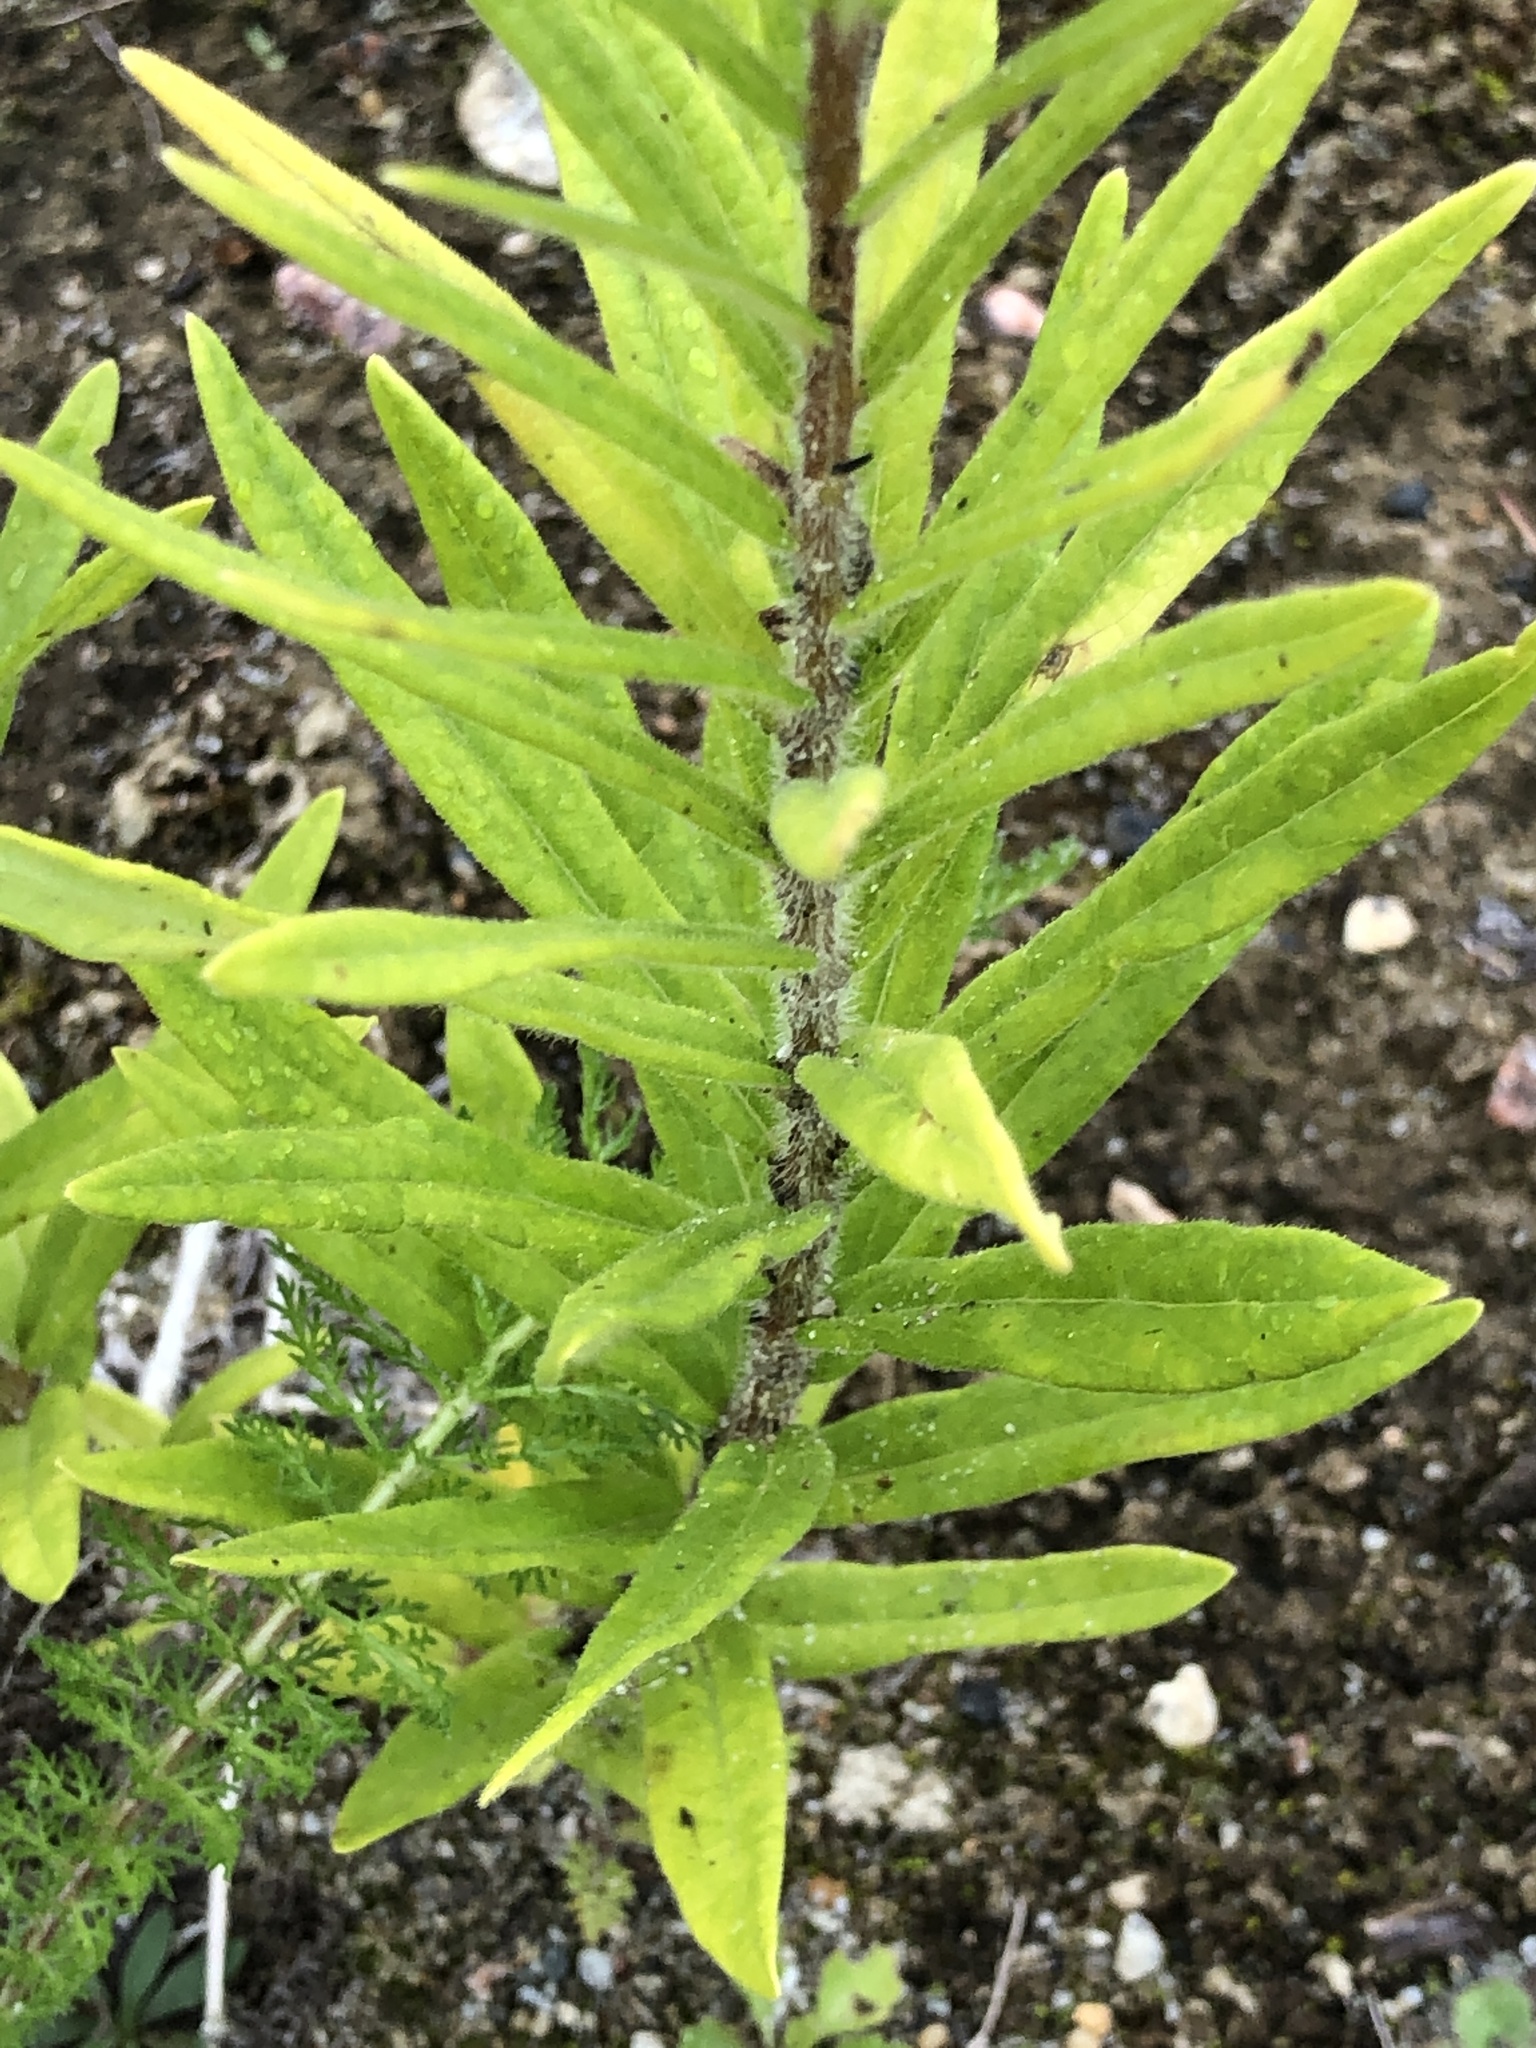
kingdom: Plantae
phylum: Tracheophyta
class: Magnoliopsida
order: Gentianales
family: Apocynaceae
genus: Asclepias
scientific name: Asclepias tuberosa
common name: Butterfly milkweed
